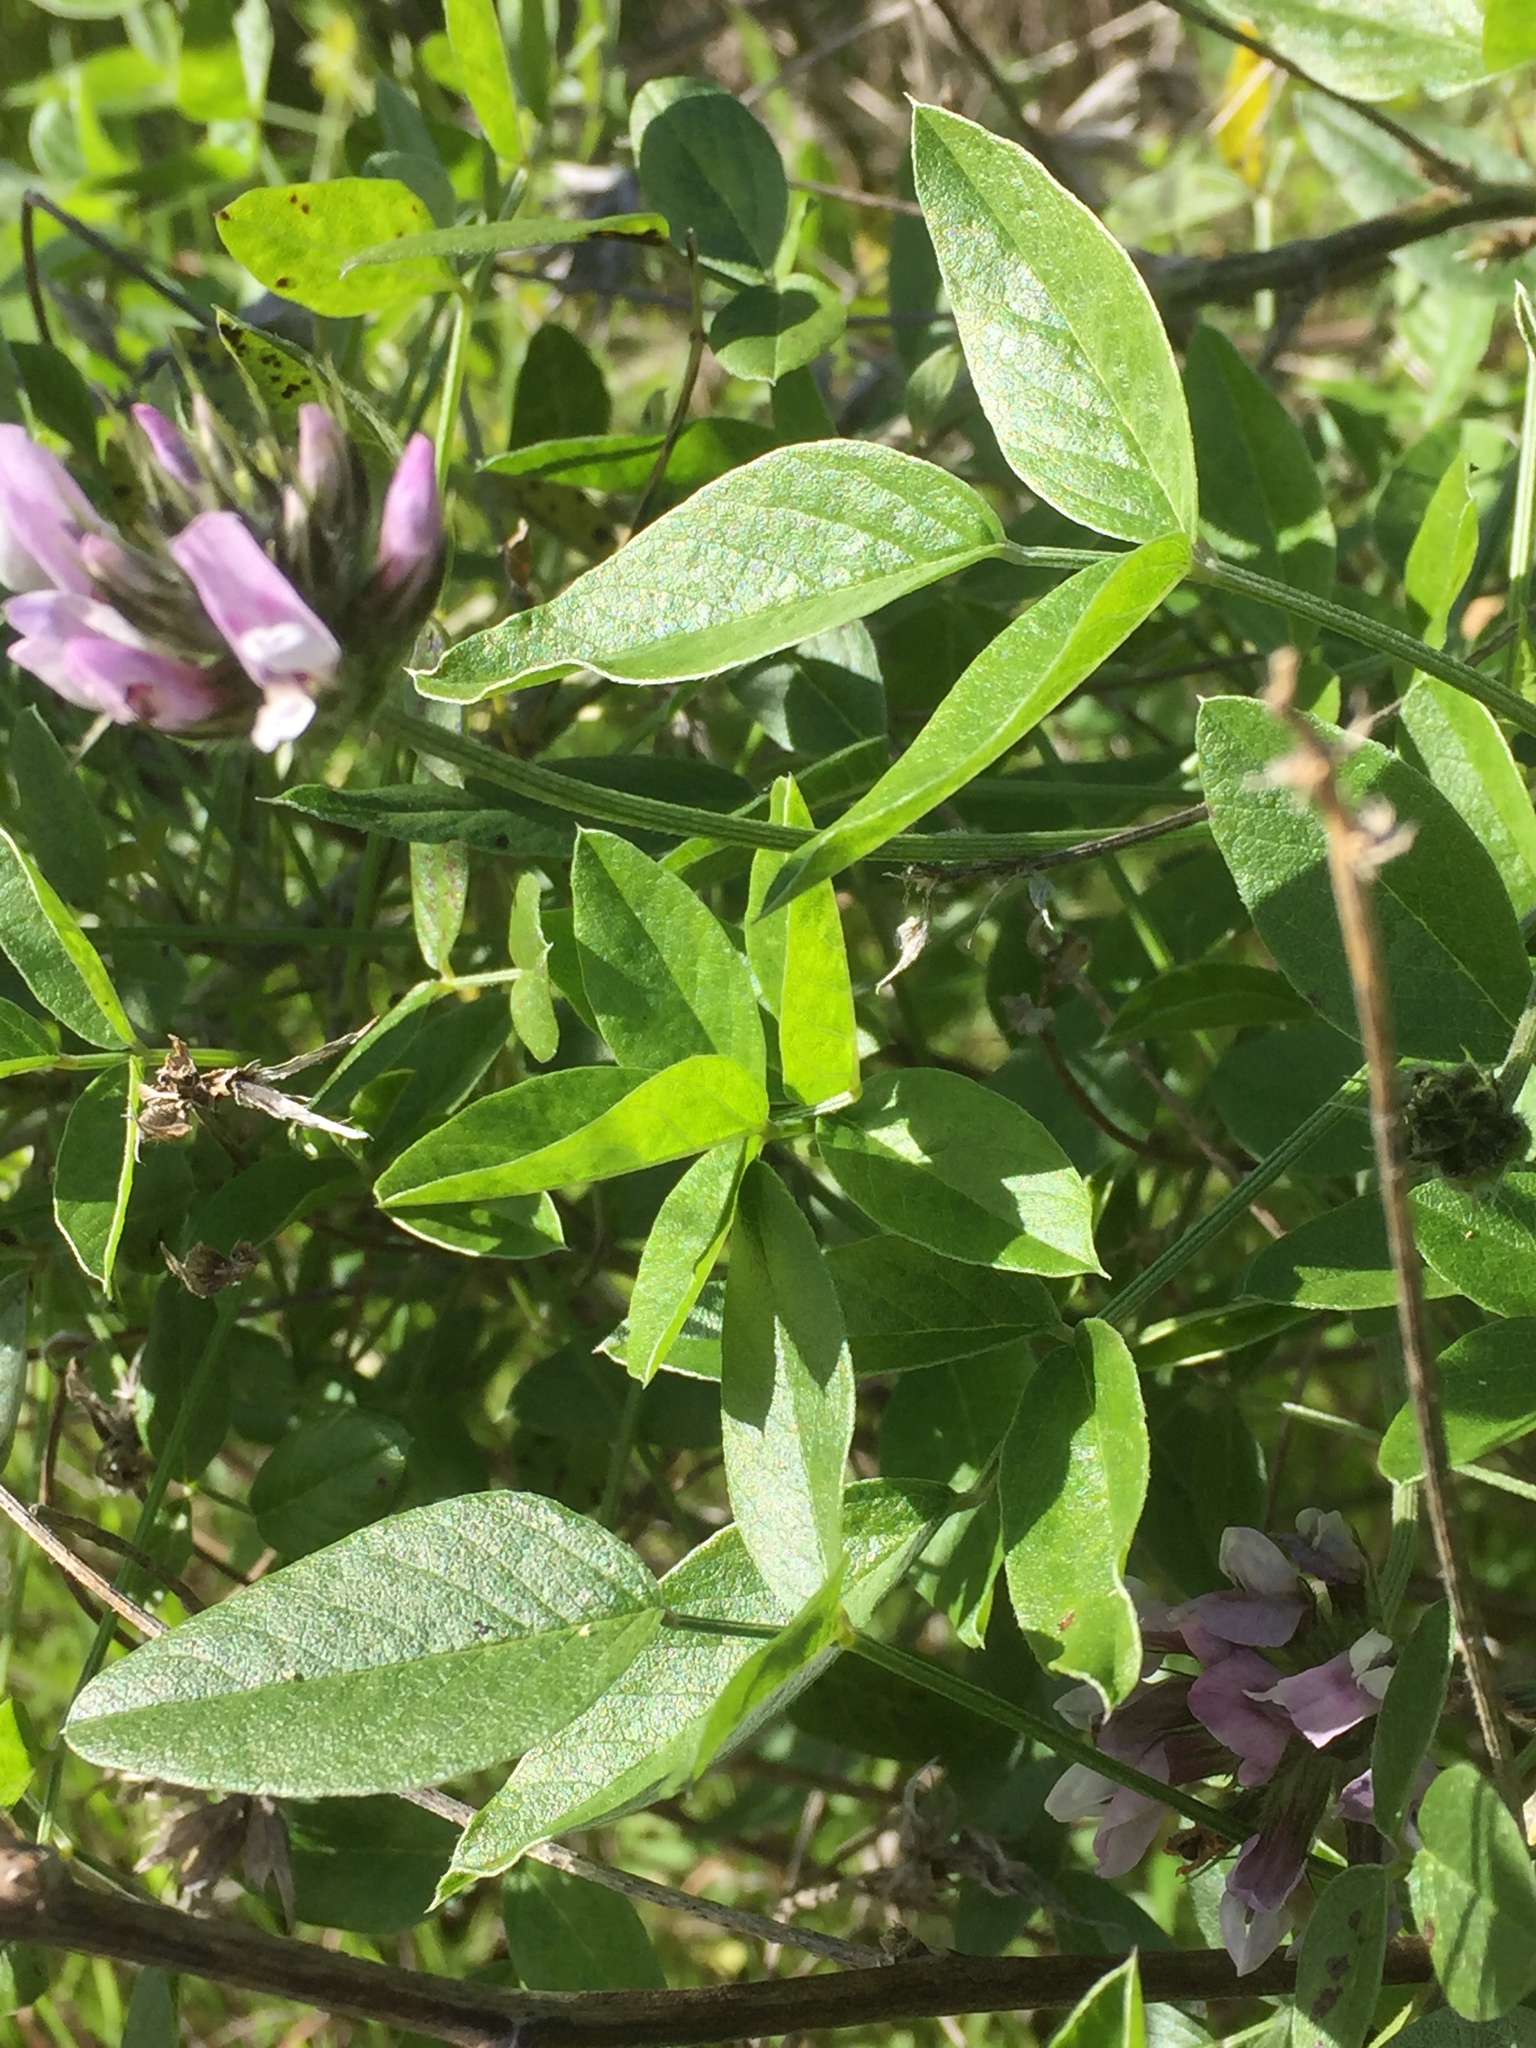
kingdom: Plantae
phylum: Tracheophyta
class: Magnoliopsida
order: Fabales
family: Fabaceae
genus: Bituminaria
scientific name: Bituminaria bituminosa
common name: Arabian pea
